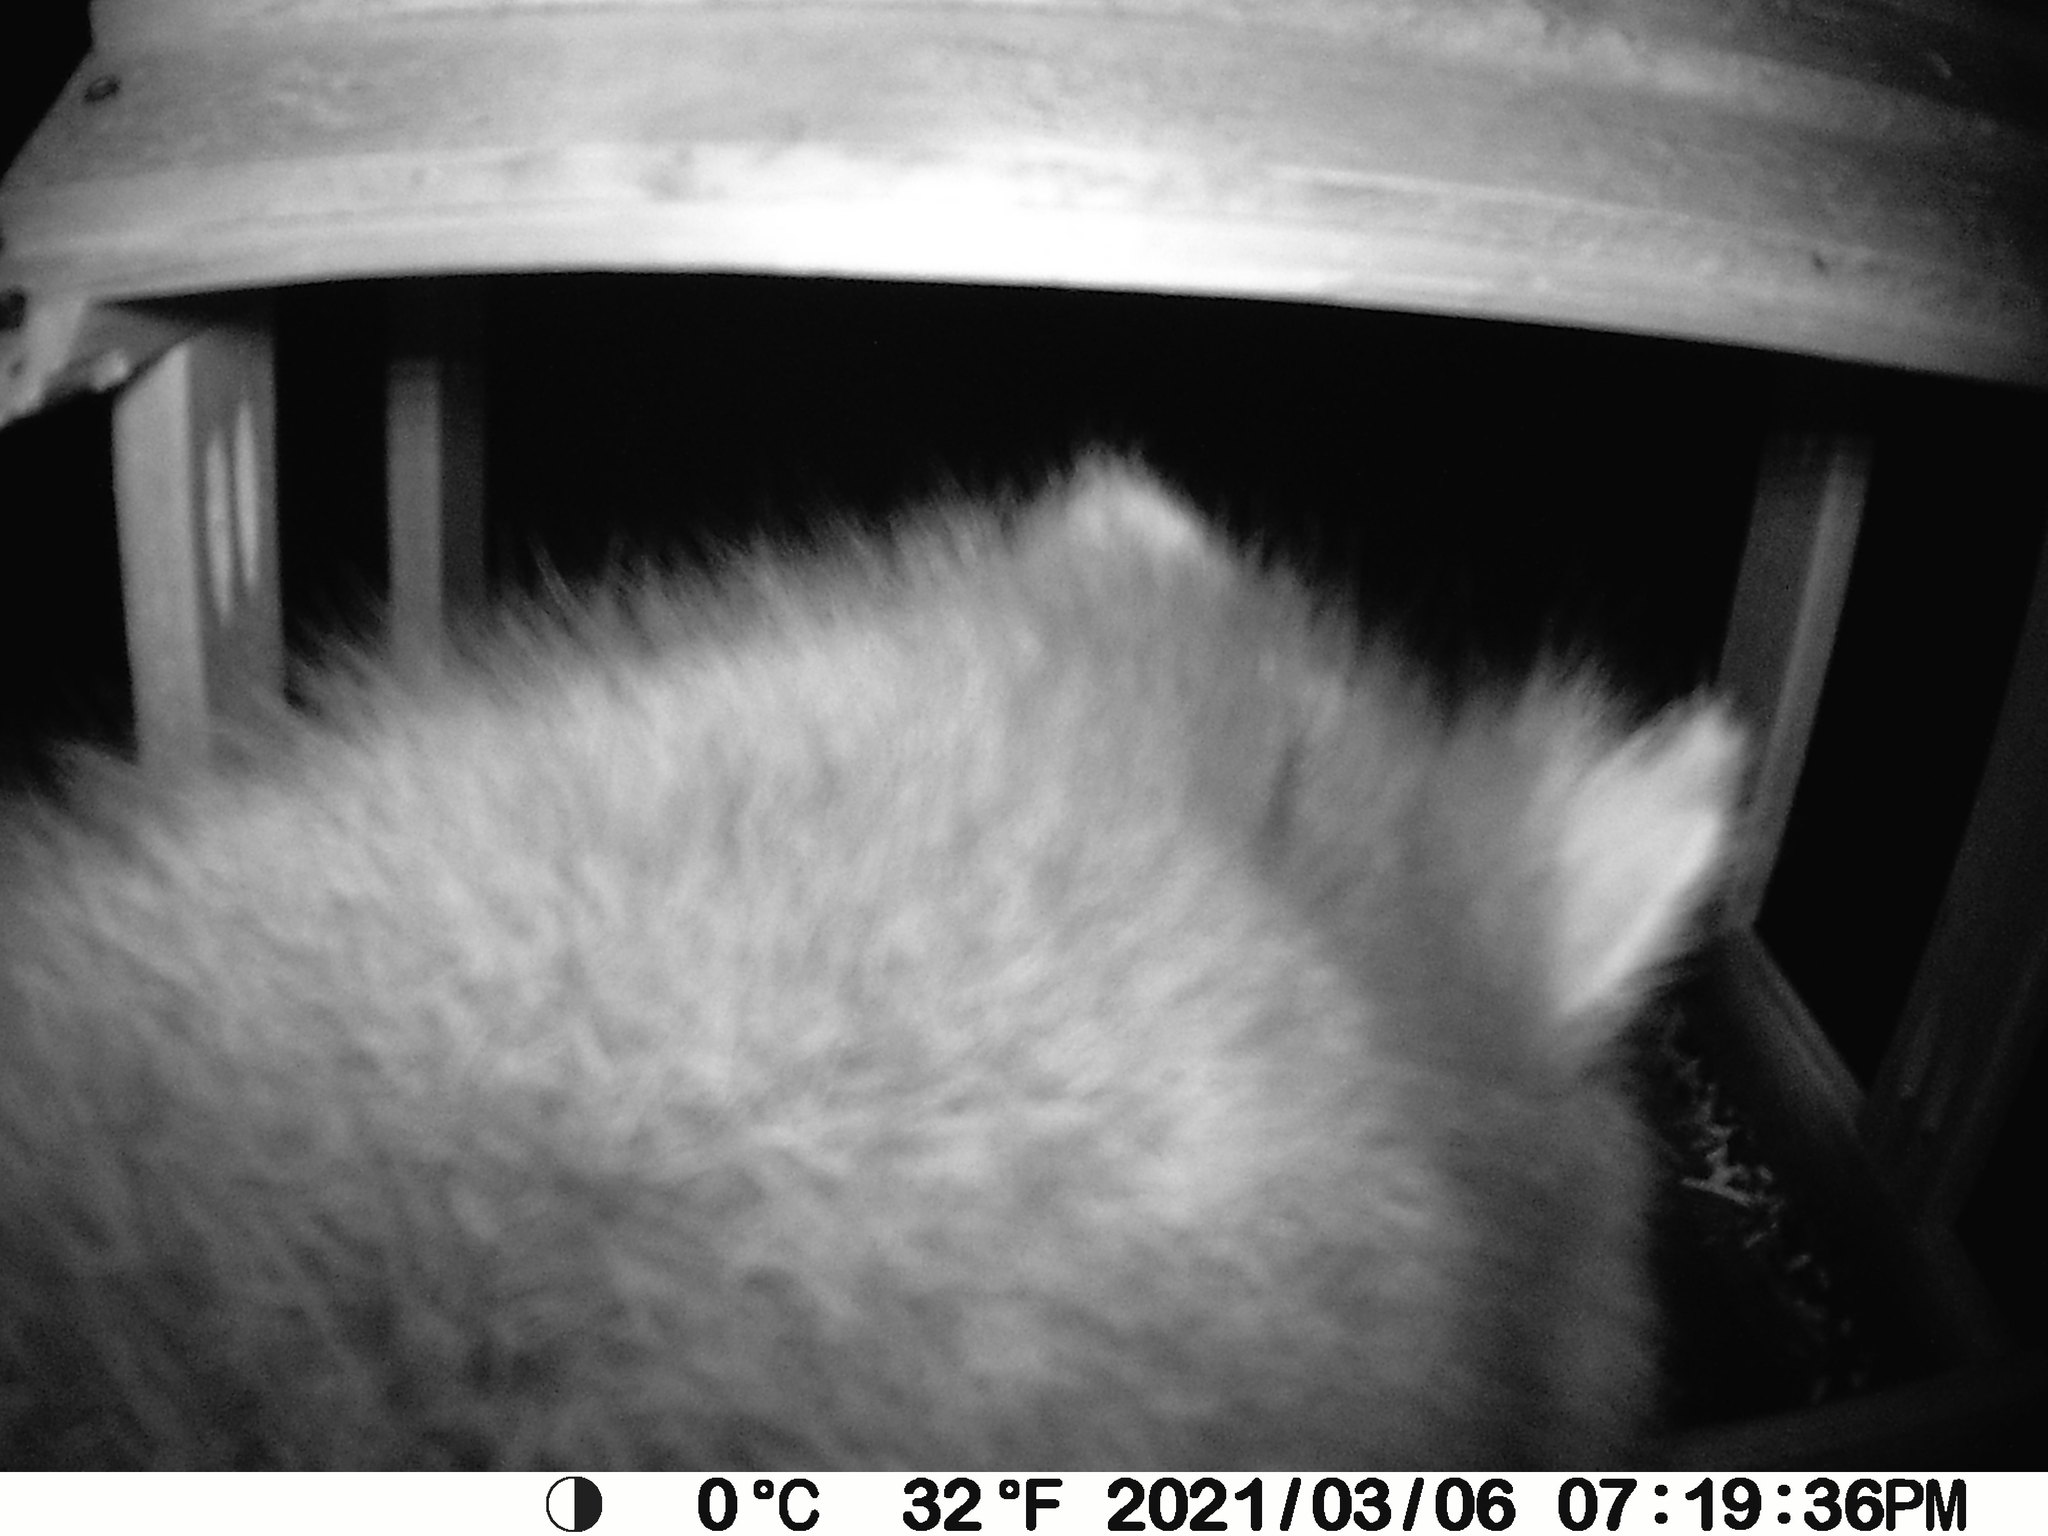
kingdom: Animalia
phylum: Chordata
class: Mammalia
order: Carnivora
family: Procyonidae
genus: Procyon
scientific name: Procyon lotor
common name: Raccoon
